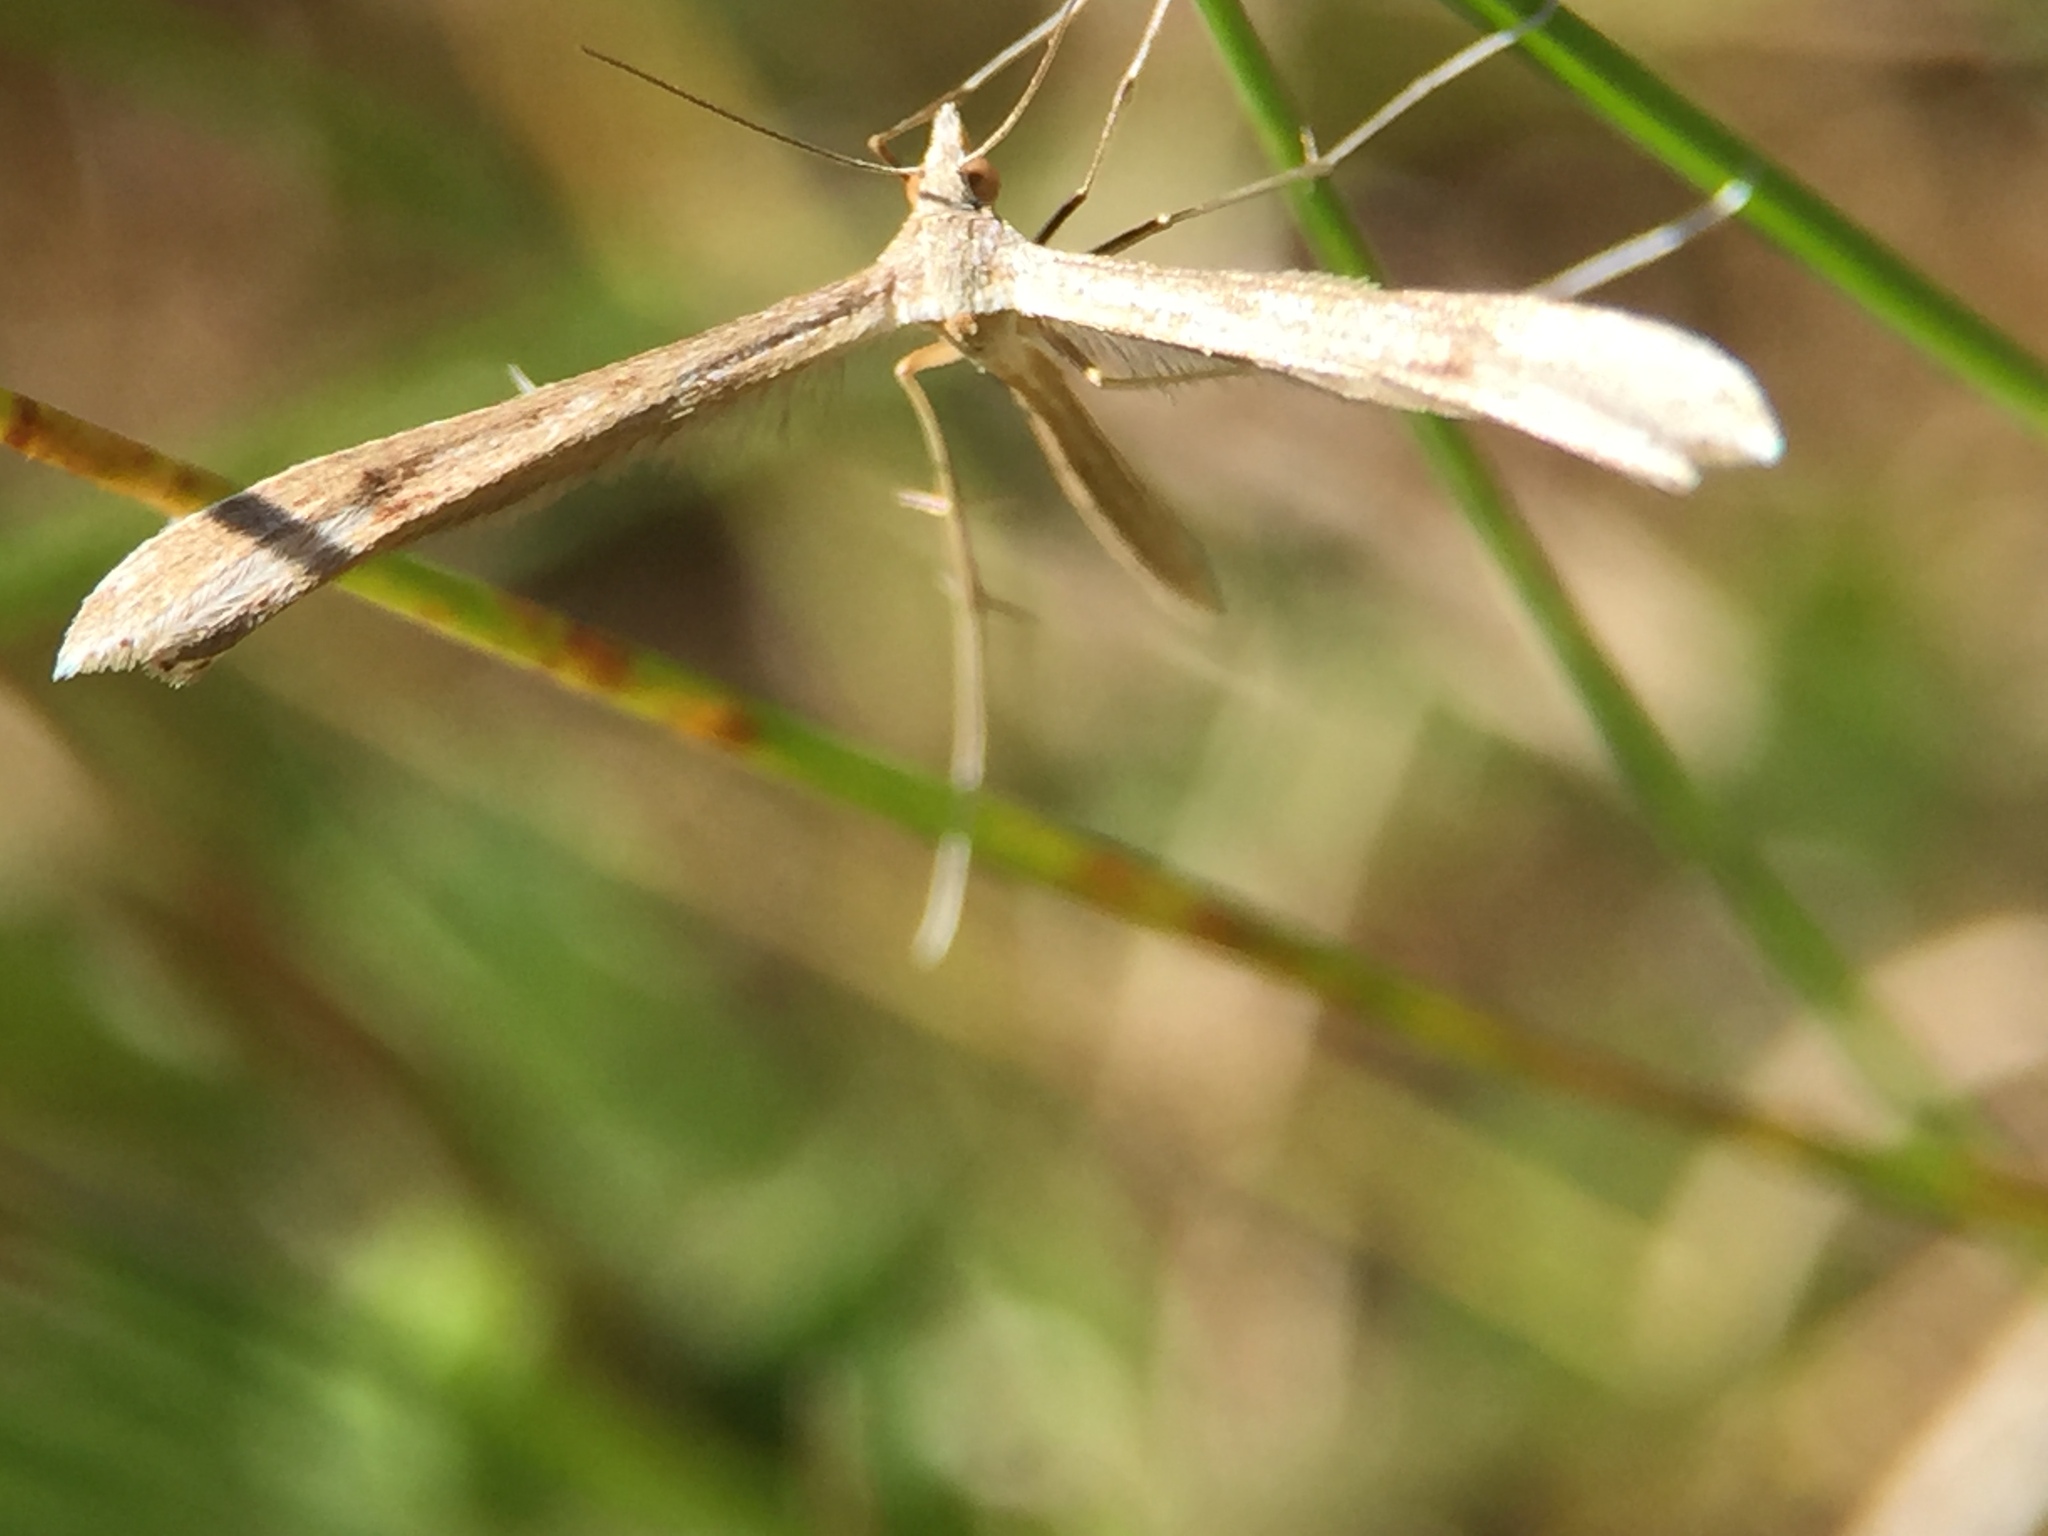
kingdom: Animalia
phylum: Arthropoda
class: Insecta
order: Lepidoptera
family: Pterophoridae
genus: Stenoptilia
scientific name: Stenoptilia zophodactylus
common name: Dowdy plume
